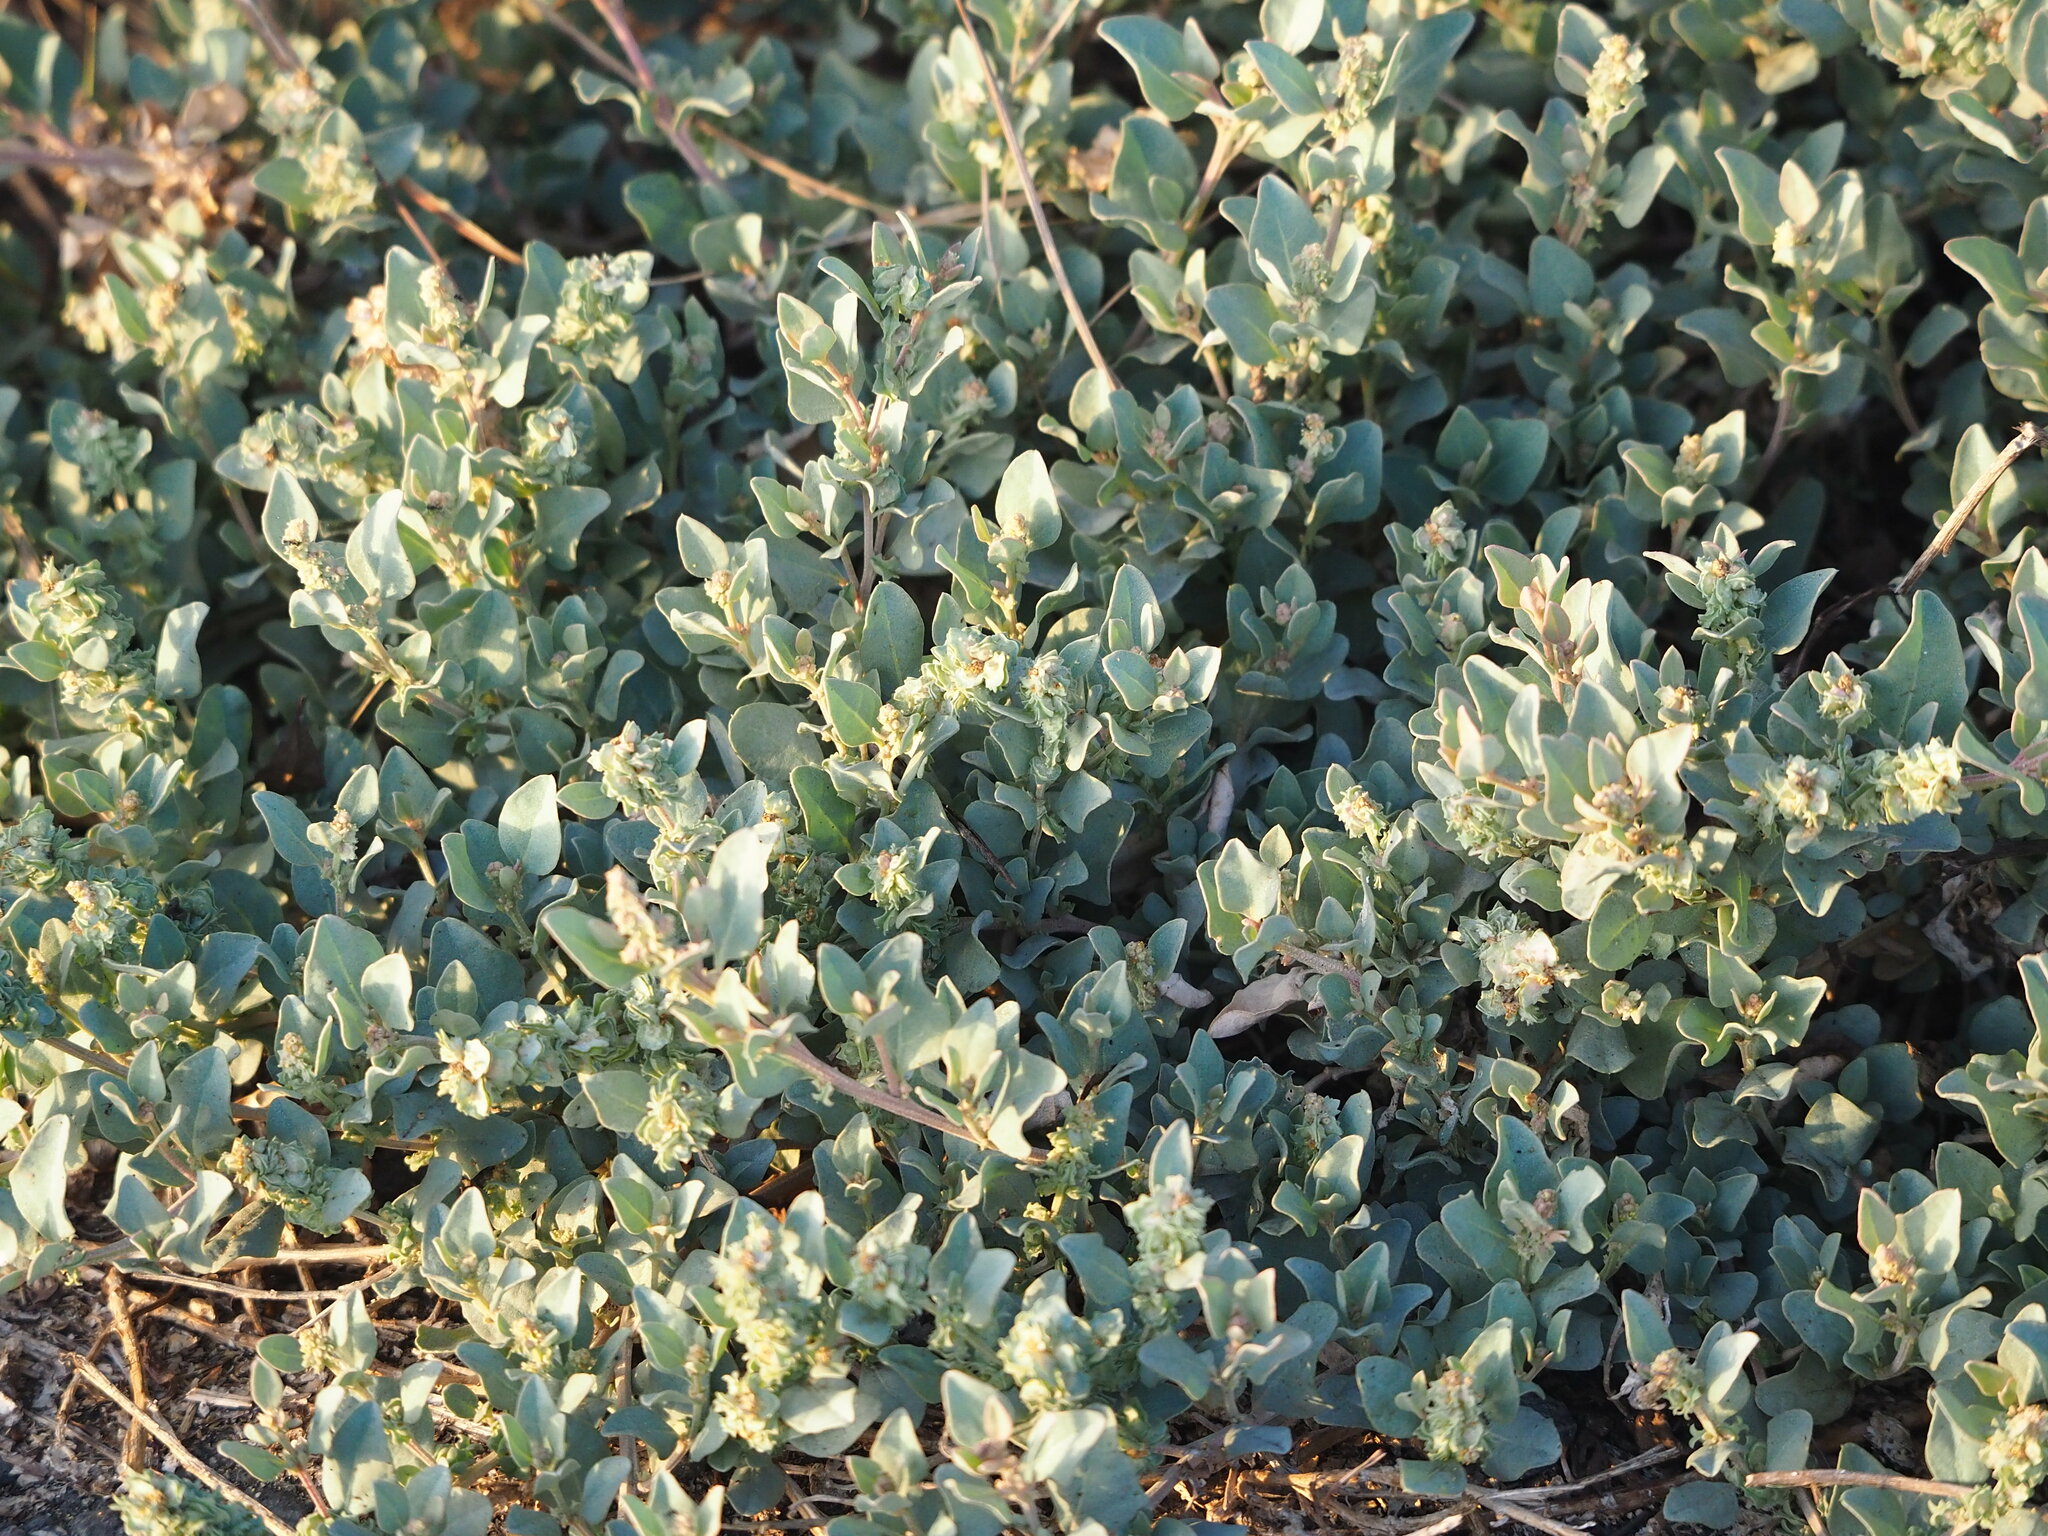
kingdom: Plantae
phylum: Tracheophyta
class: Magnoliopsida
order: Caryophyllales
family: Amaranthaceae
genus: Atriplex
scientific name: Atriplex maximowicziana
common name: Maximowicz's saltbush
